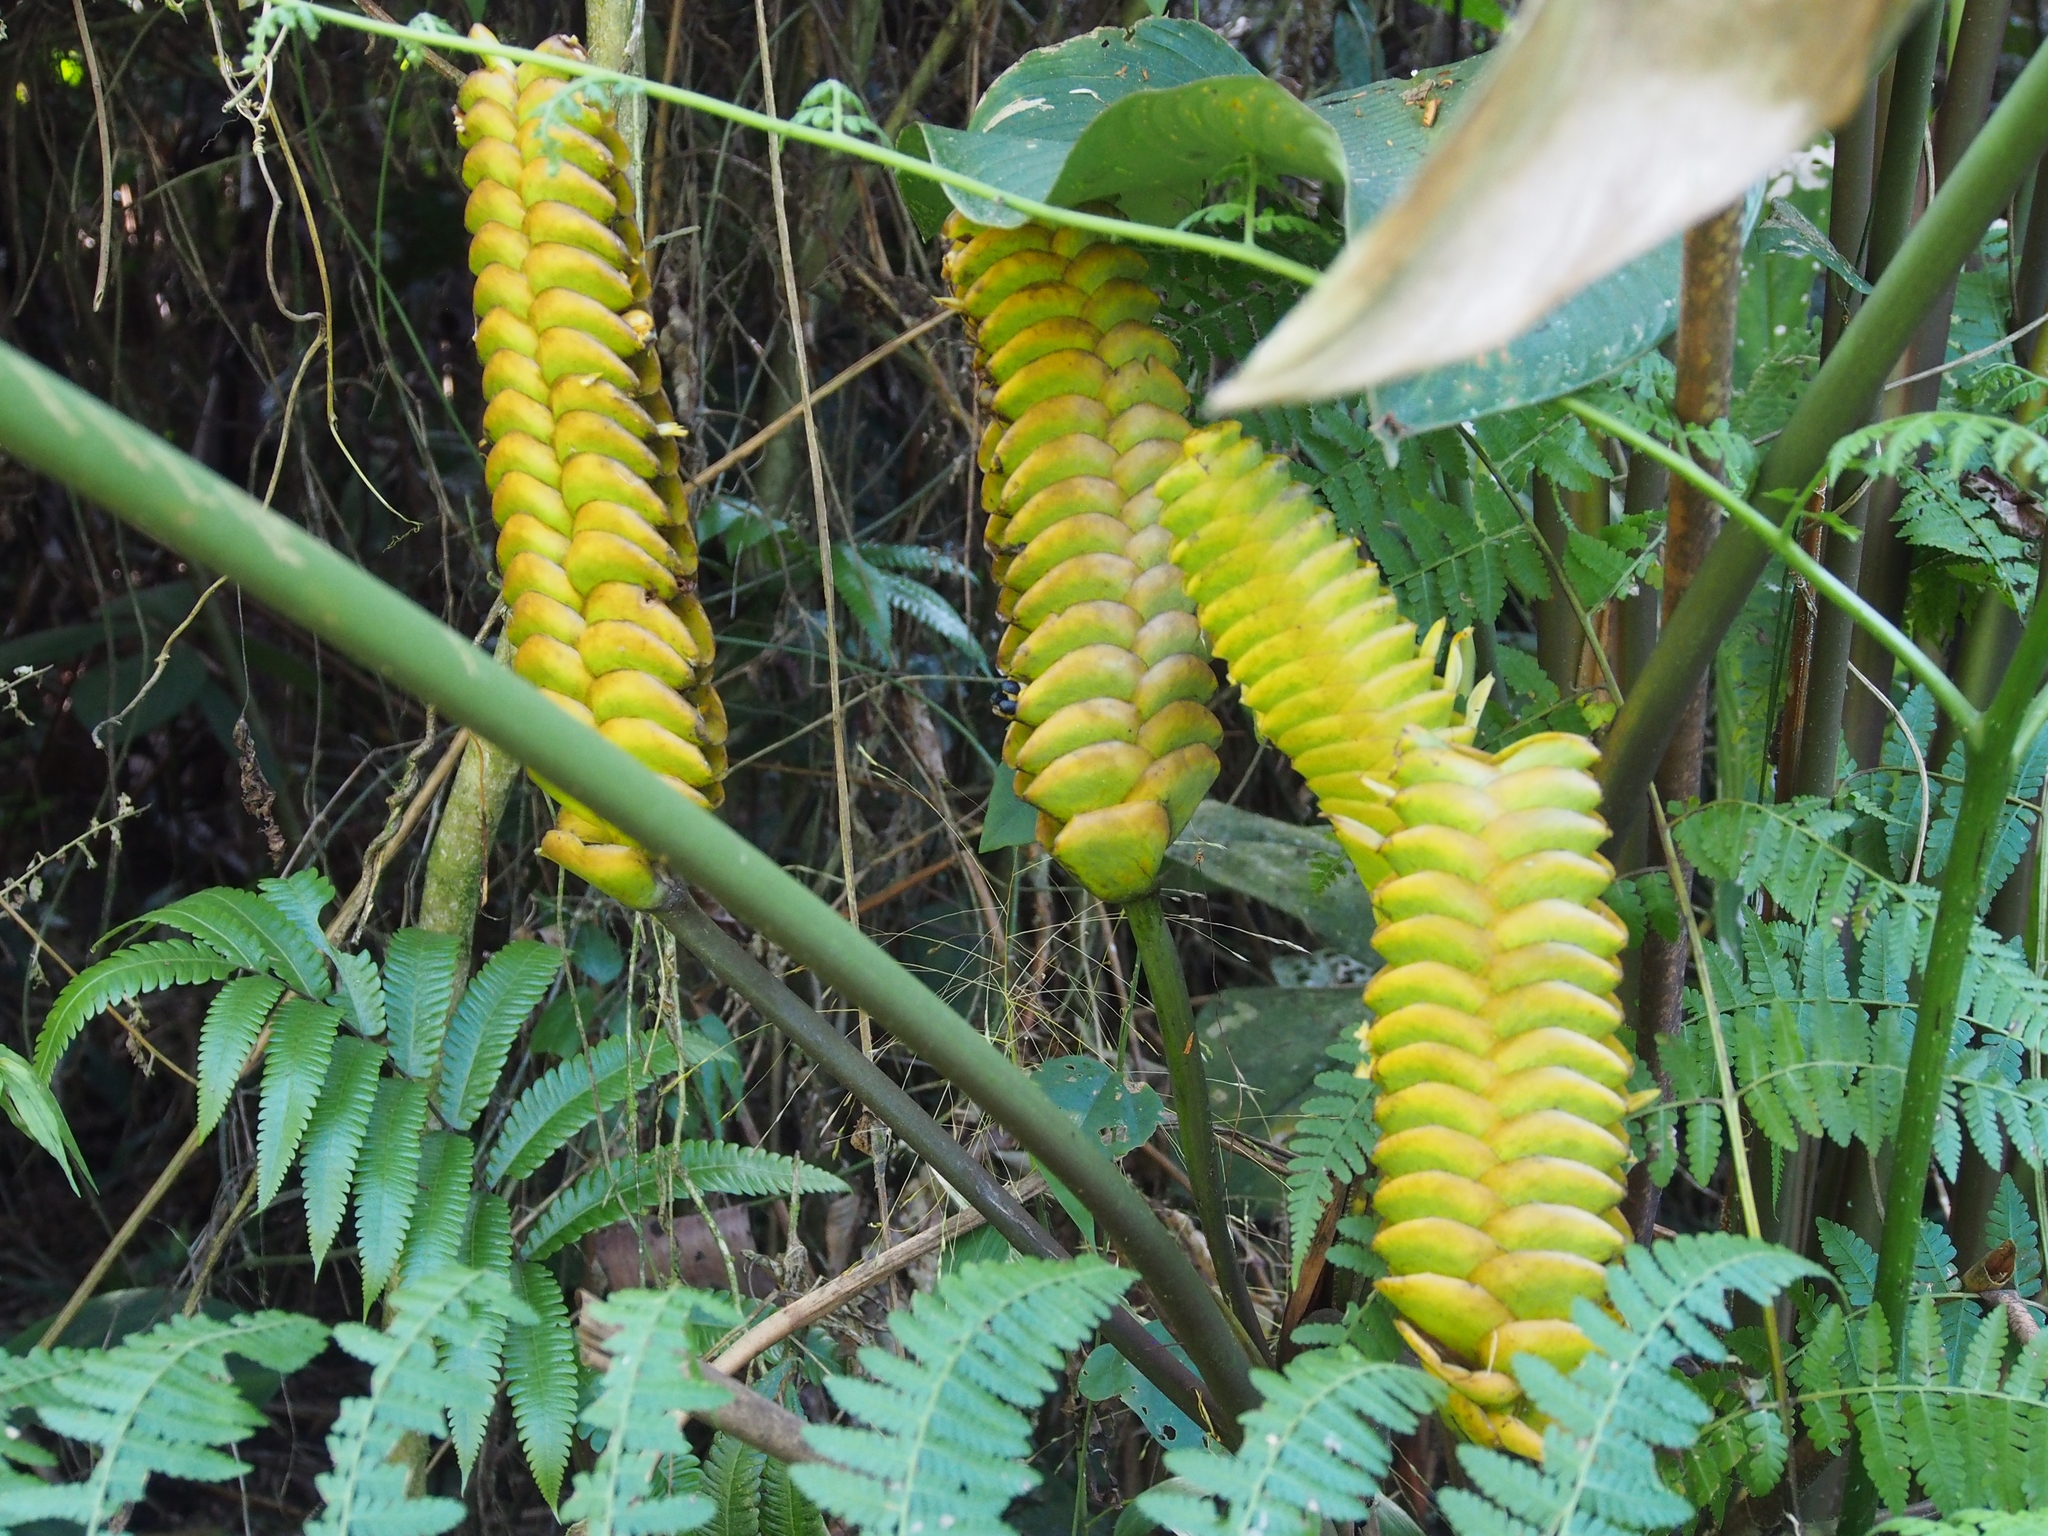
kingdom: Plantae
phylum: Tracheophyta
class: Liliopsida
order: Zingiberales
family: Marantaceae
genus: Calathea
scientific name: Calathea crotalifera
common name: Rattlesnake plant
